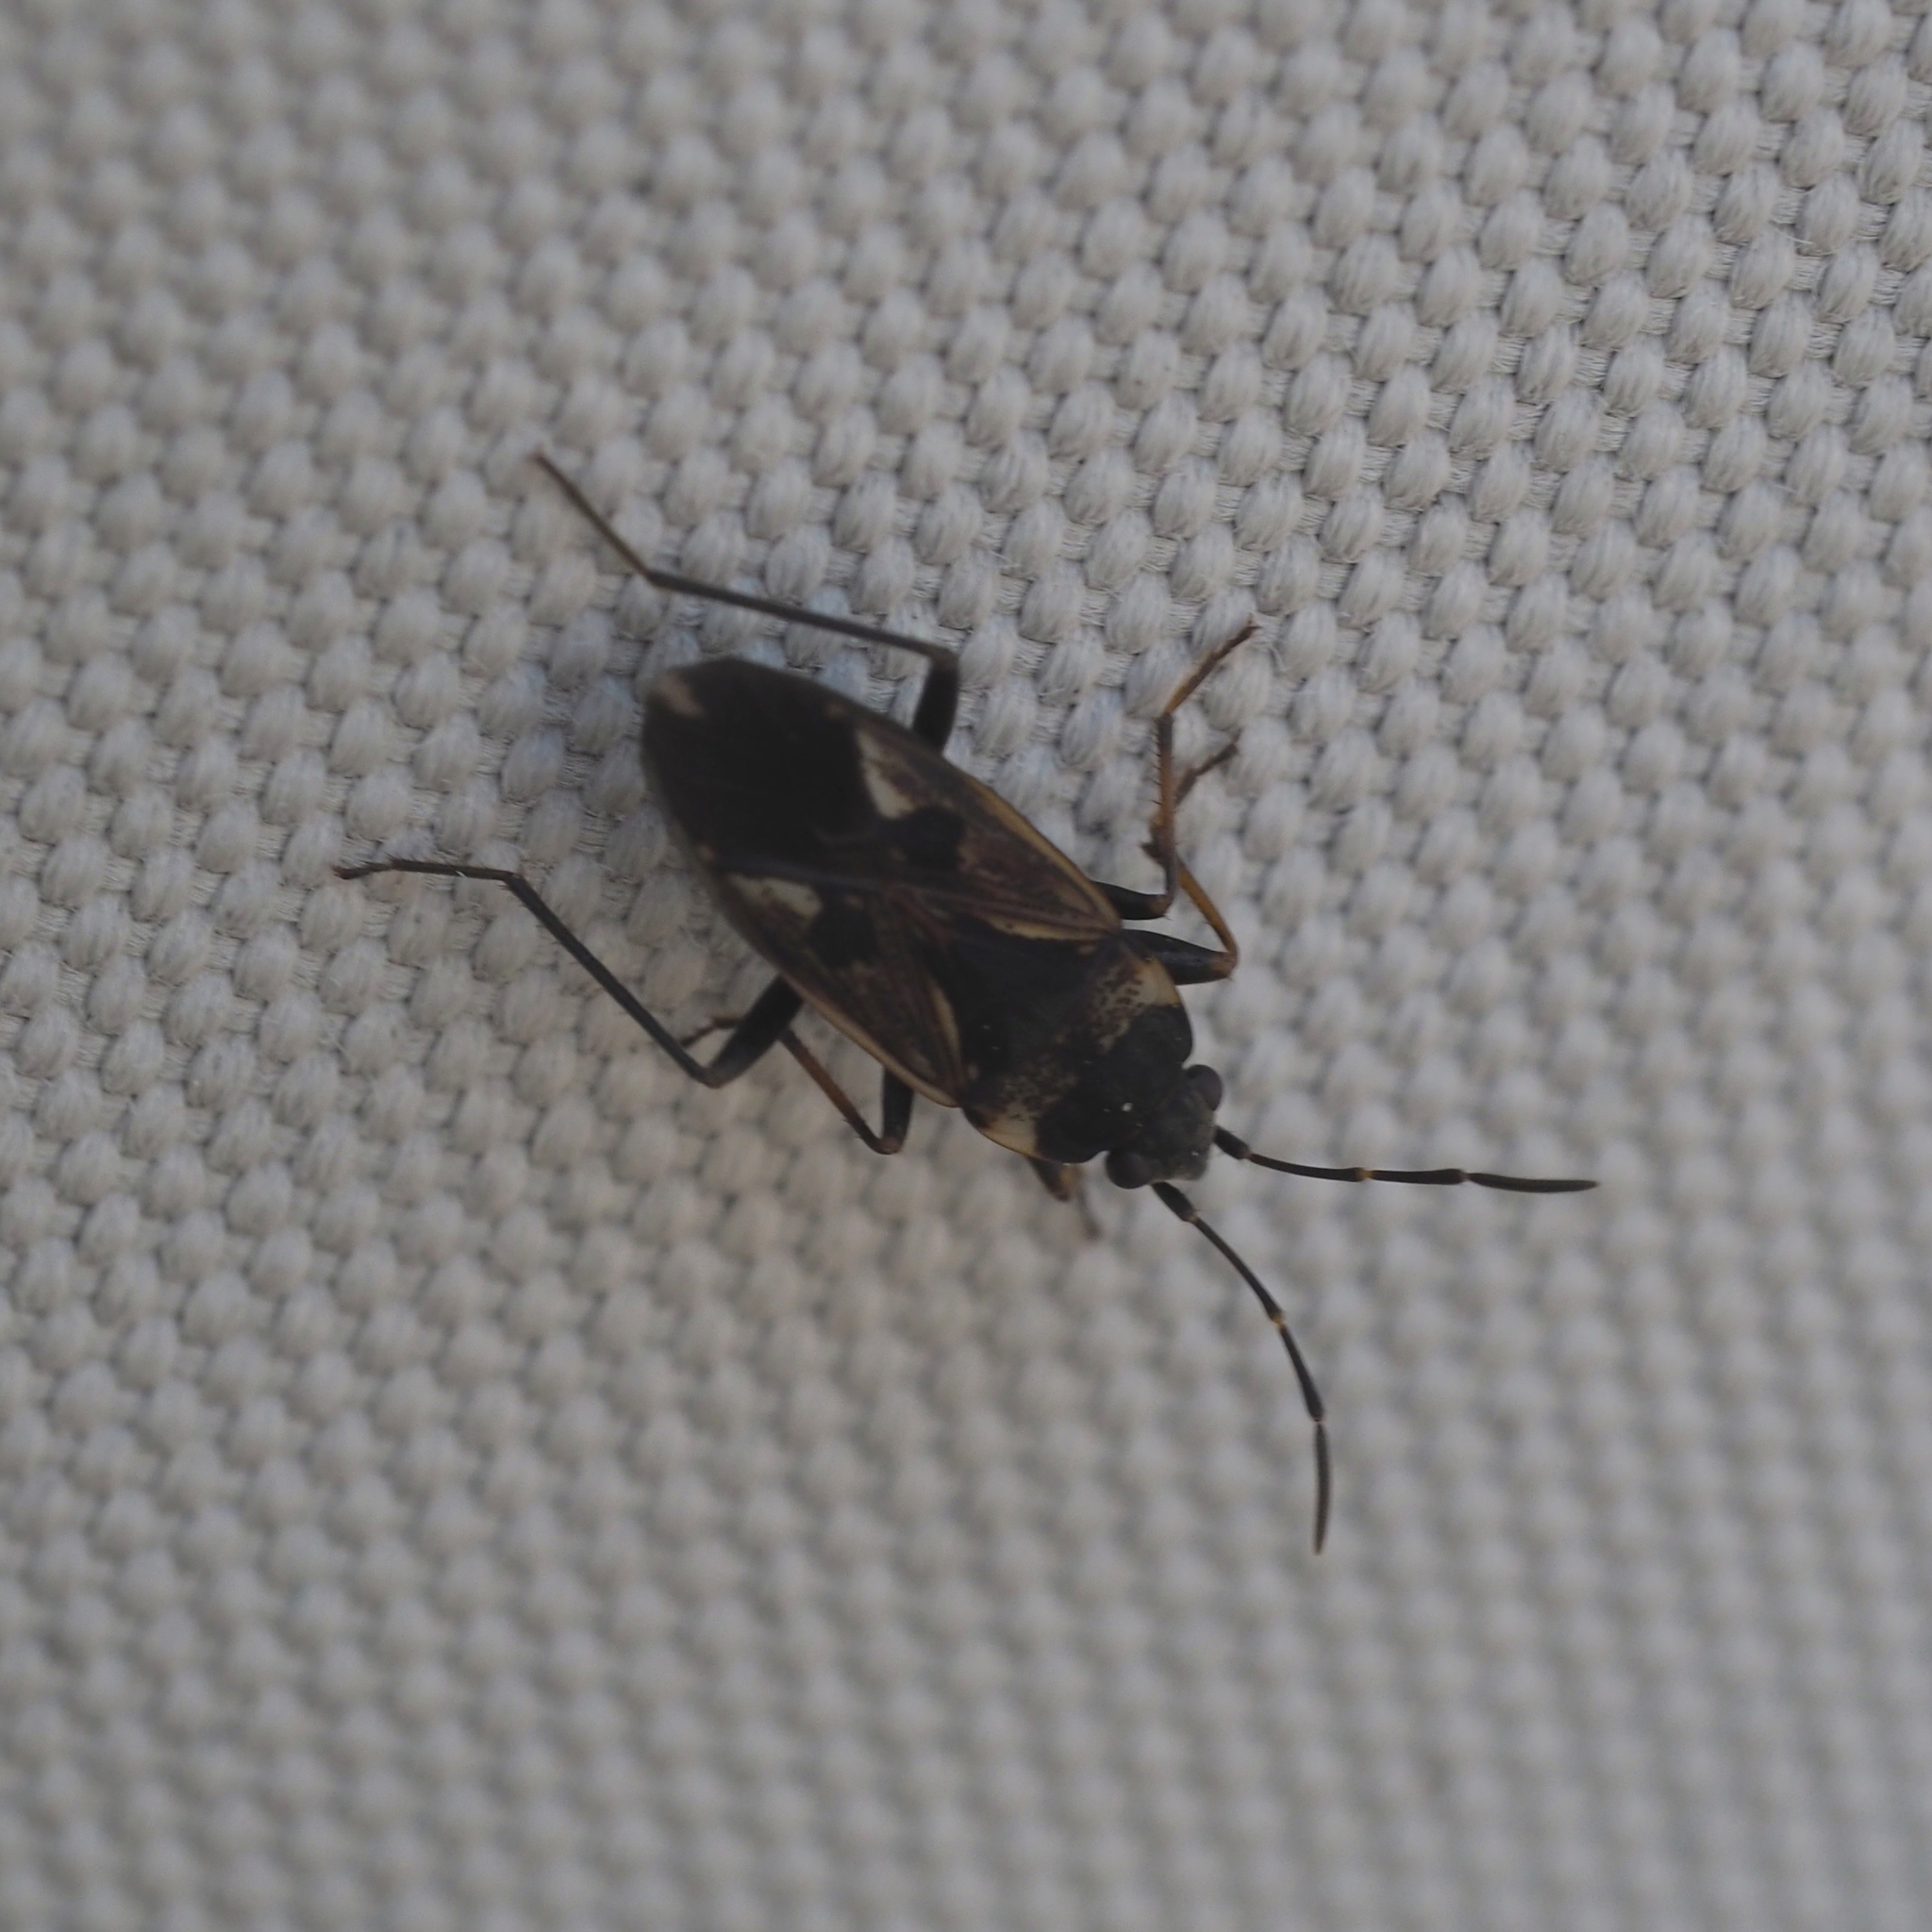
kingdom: Animalia
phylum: Arthropoda
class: Insecta
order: Hemiptera
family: Rhyparochromidae
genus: Rhyparochromus
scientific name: Rhyparochromus vulgaris
